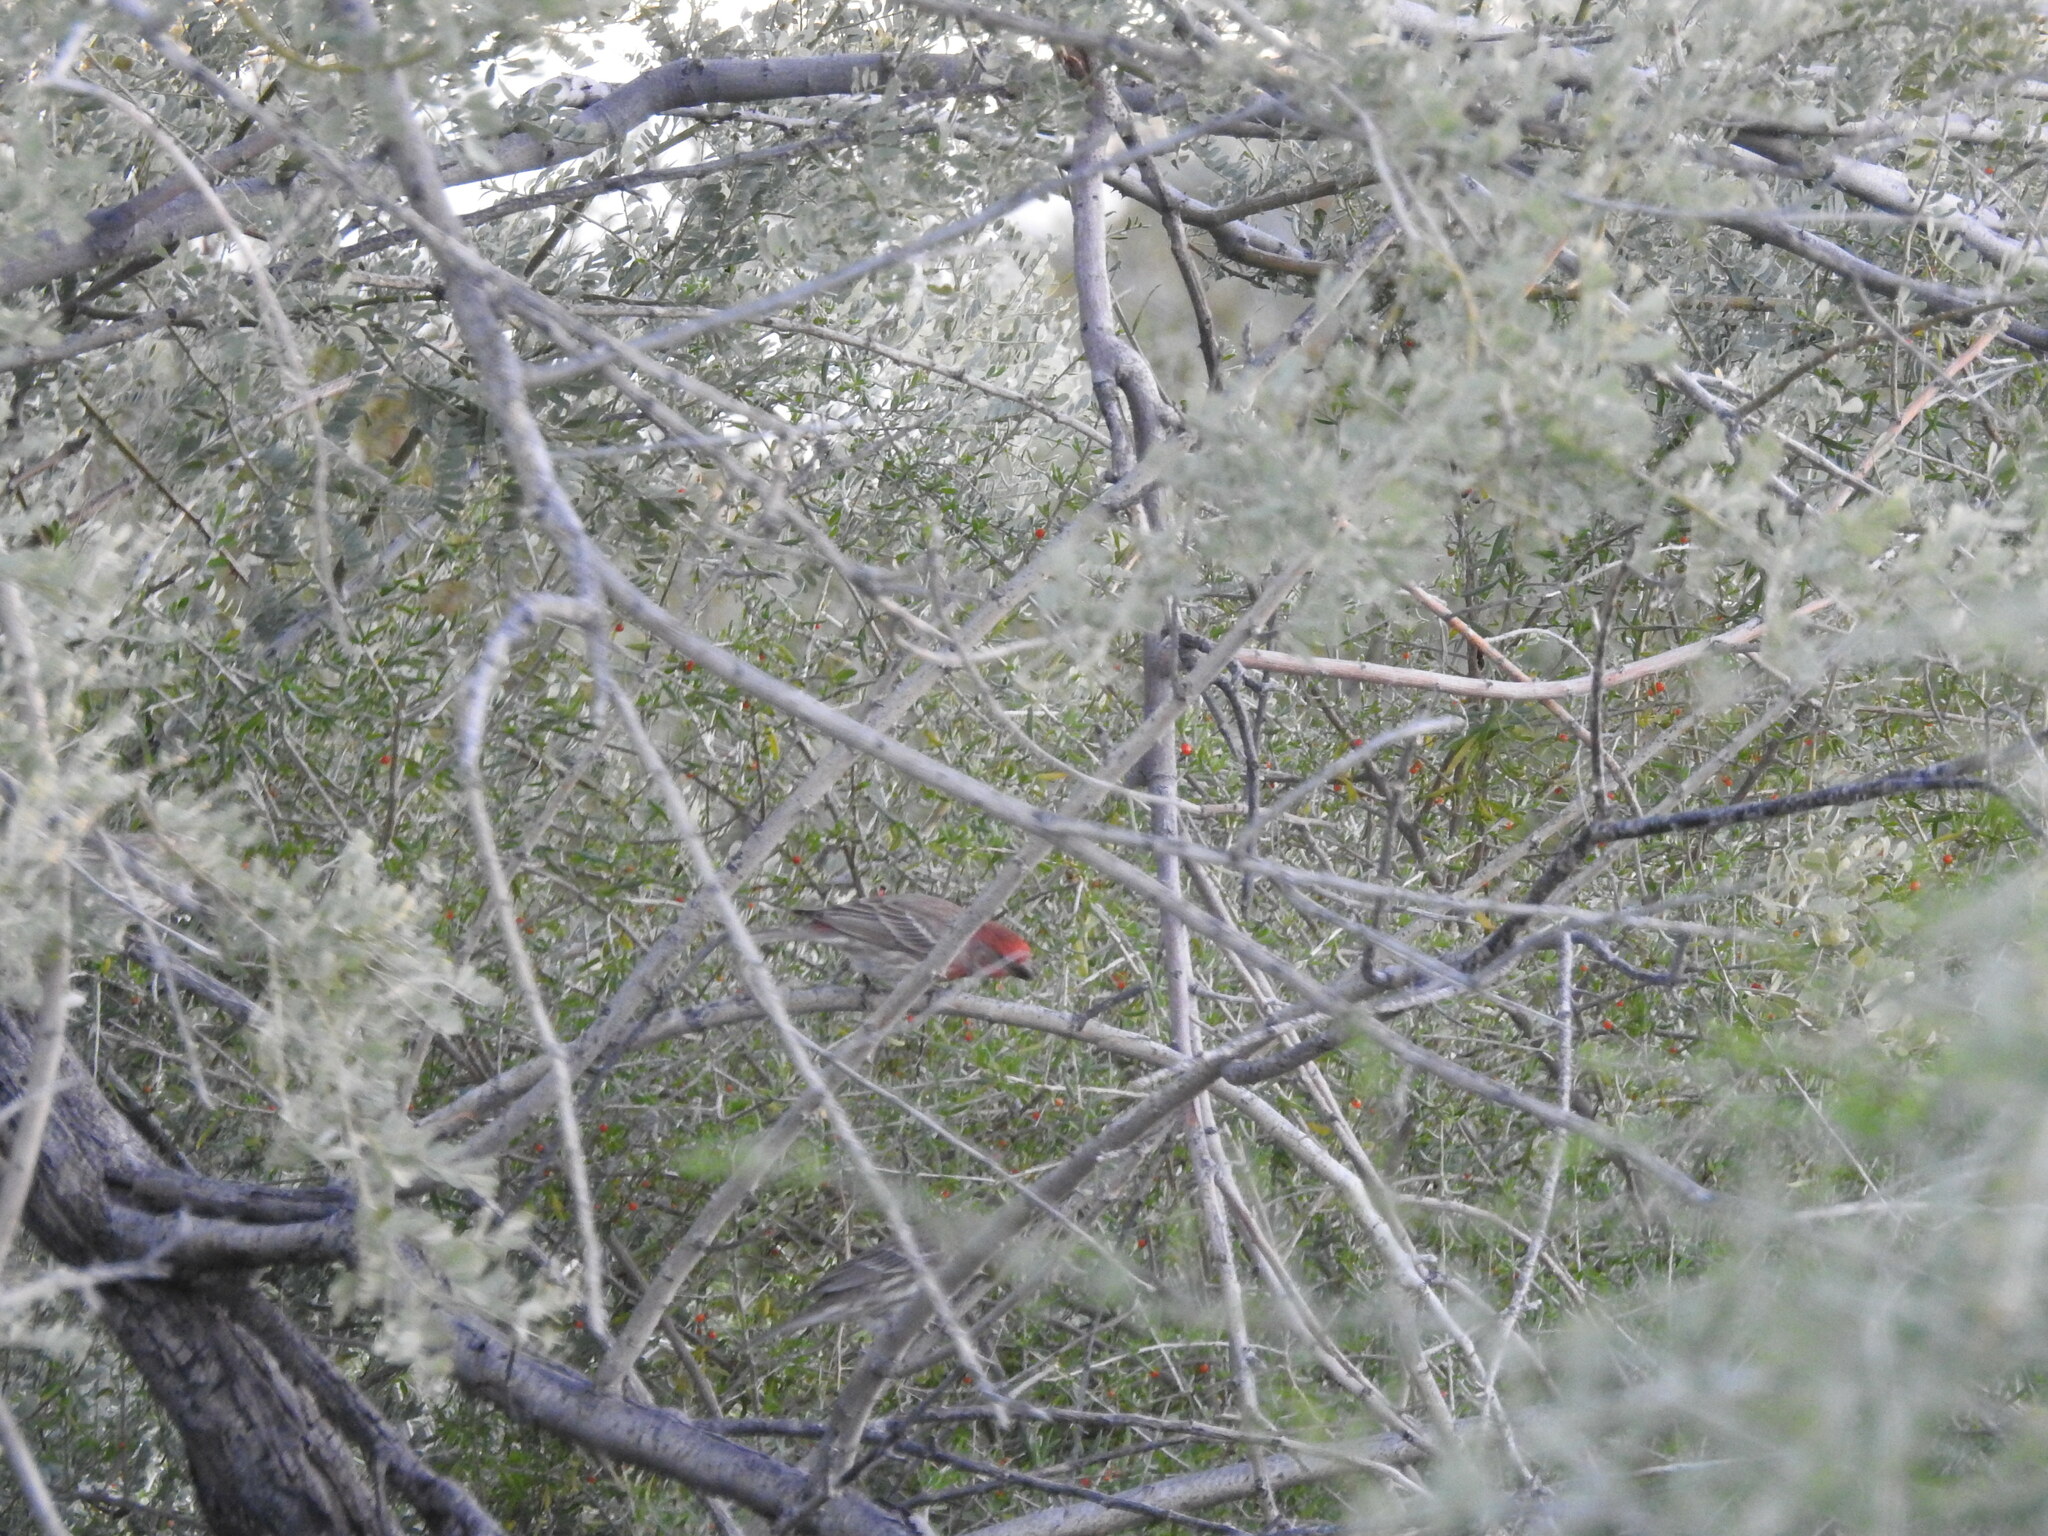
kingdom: Animalia
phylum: Chordata
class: Aves
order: Passeriformes
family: Fringillidae
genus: Haemorhous
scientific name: Haemorhous mexicanus
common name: House finch
